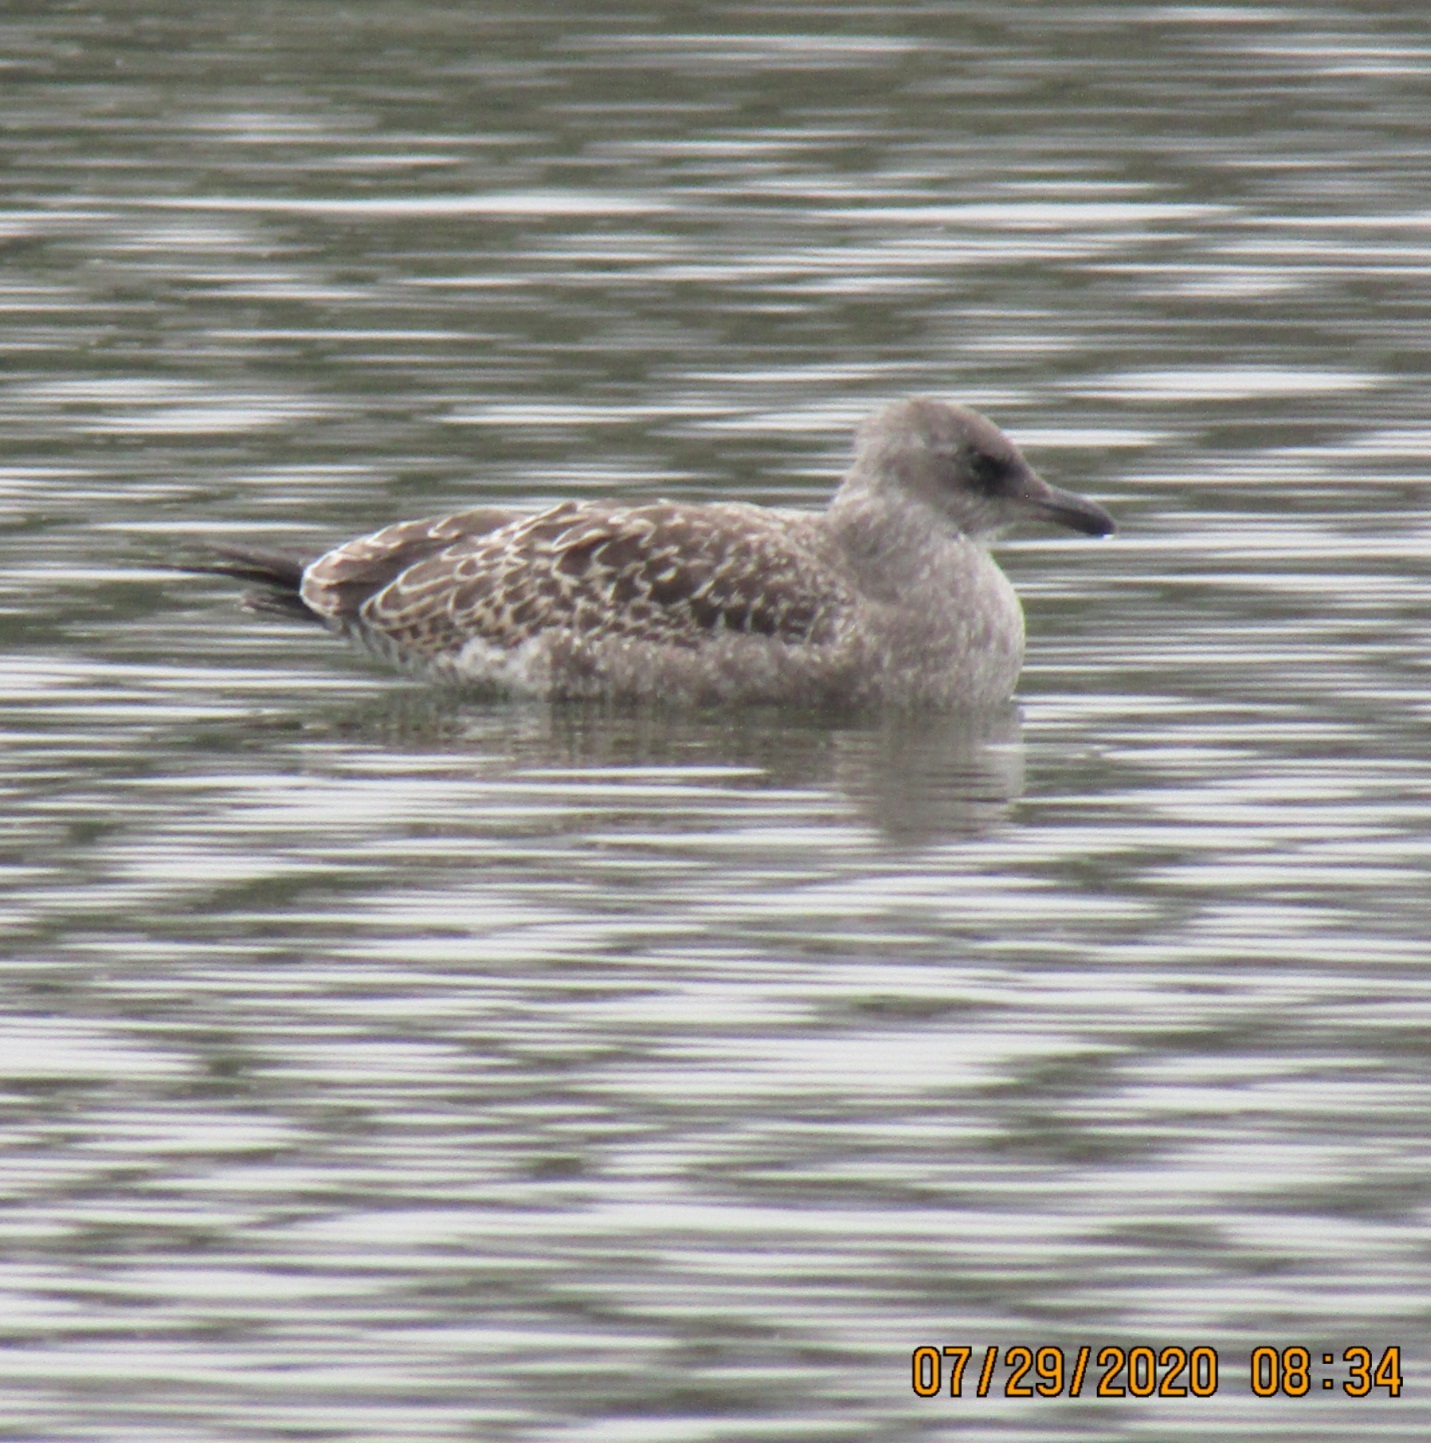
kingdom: Animalia
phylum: Chordata
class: Aves
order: Charadriiformes
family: Laridae
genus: Larus
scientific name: Larus occidentalis
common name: Western gull
